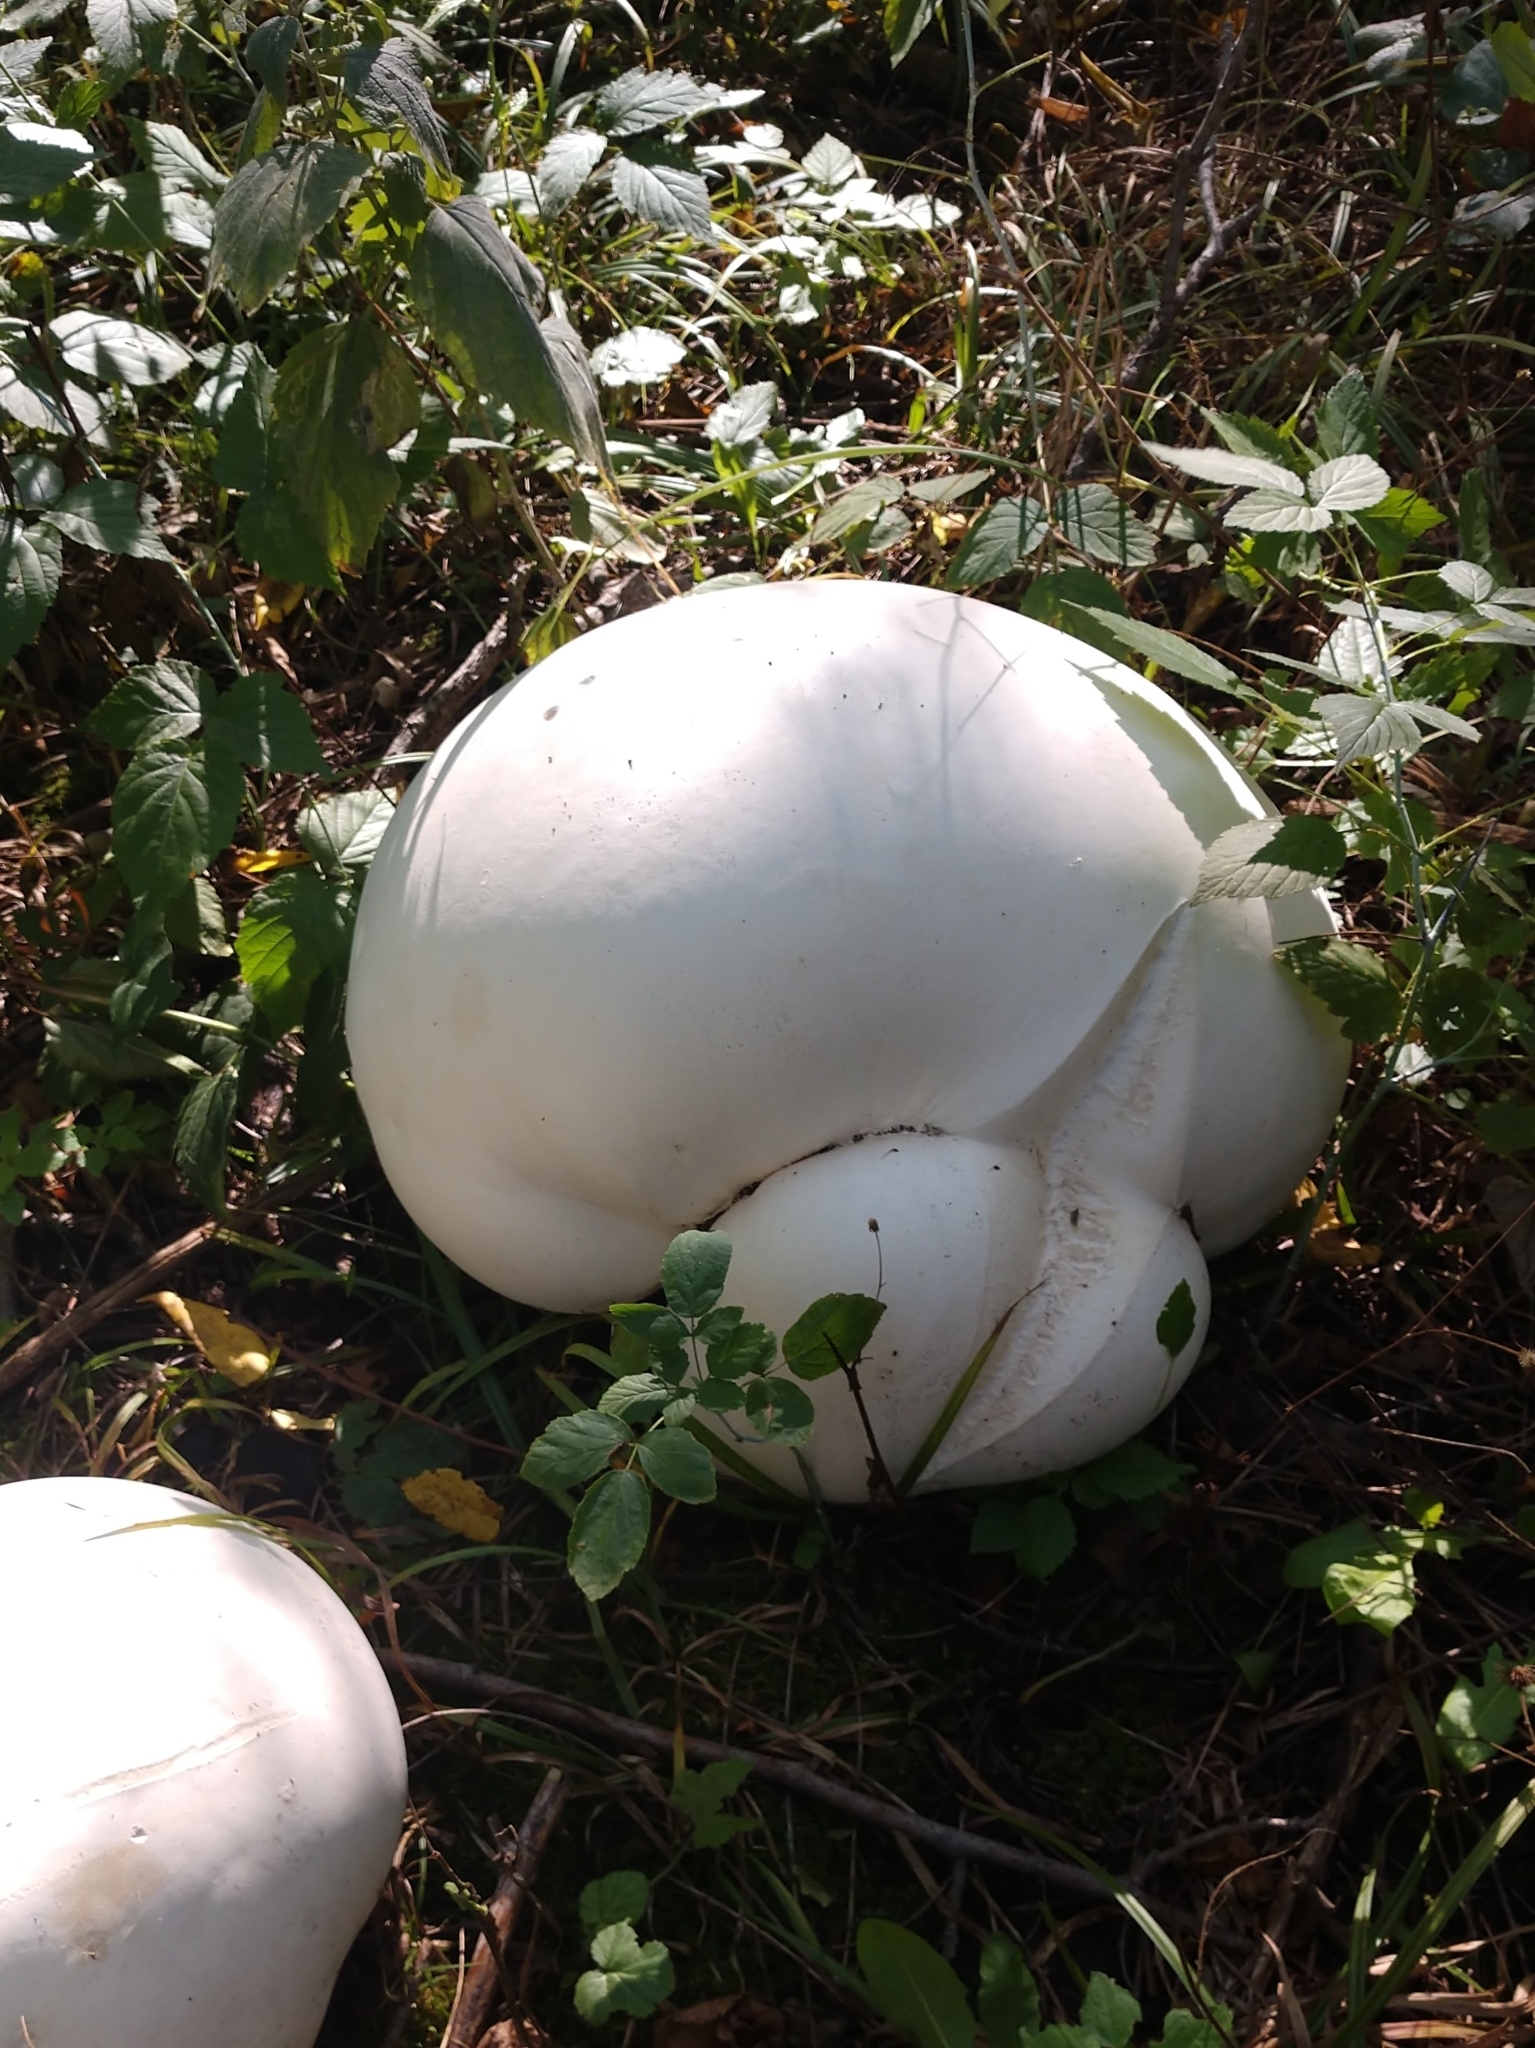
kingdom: Fungi
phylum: Basidiomycota
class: Agaricomycetes
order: Agaricales
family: Lycoperdaceae
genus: Calvatia
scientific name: Calvatia gigantea
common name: Giant puffball
